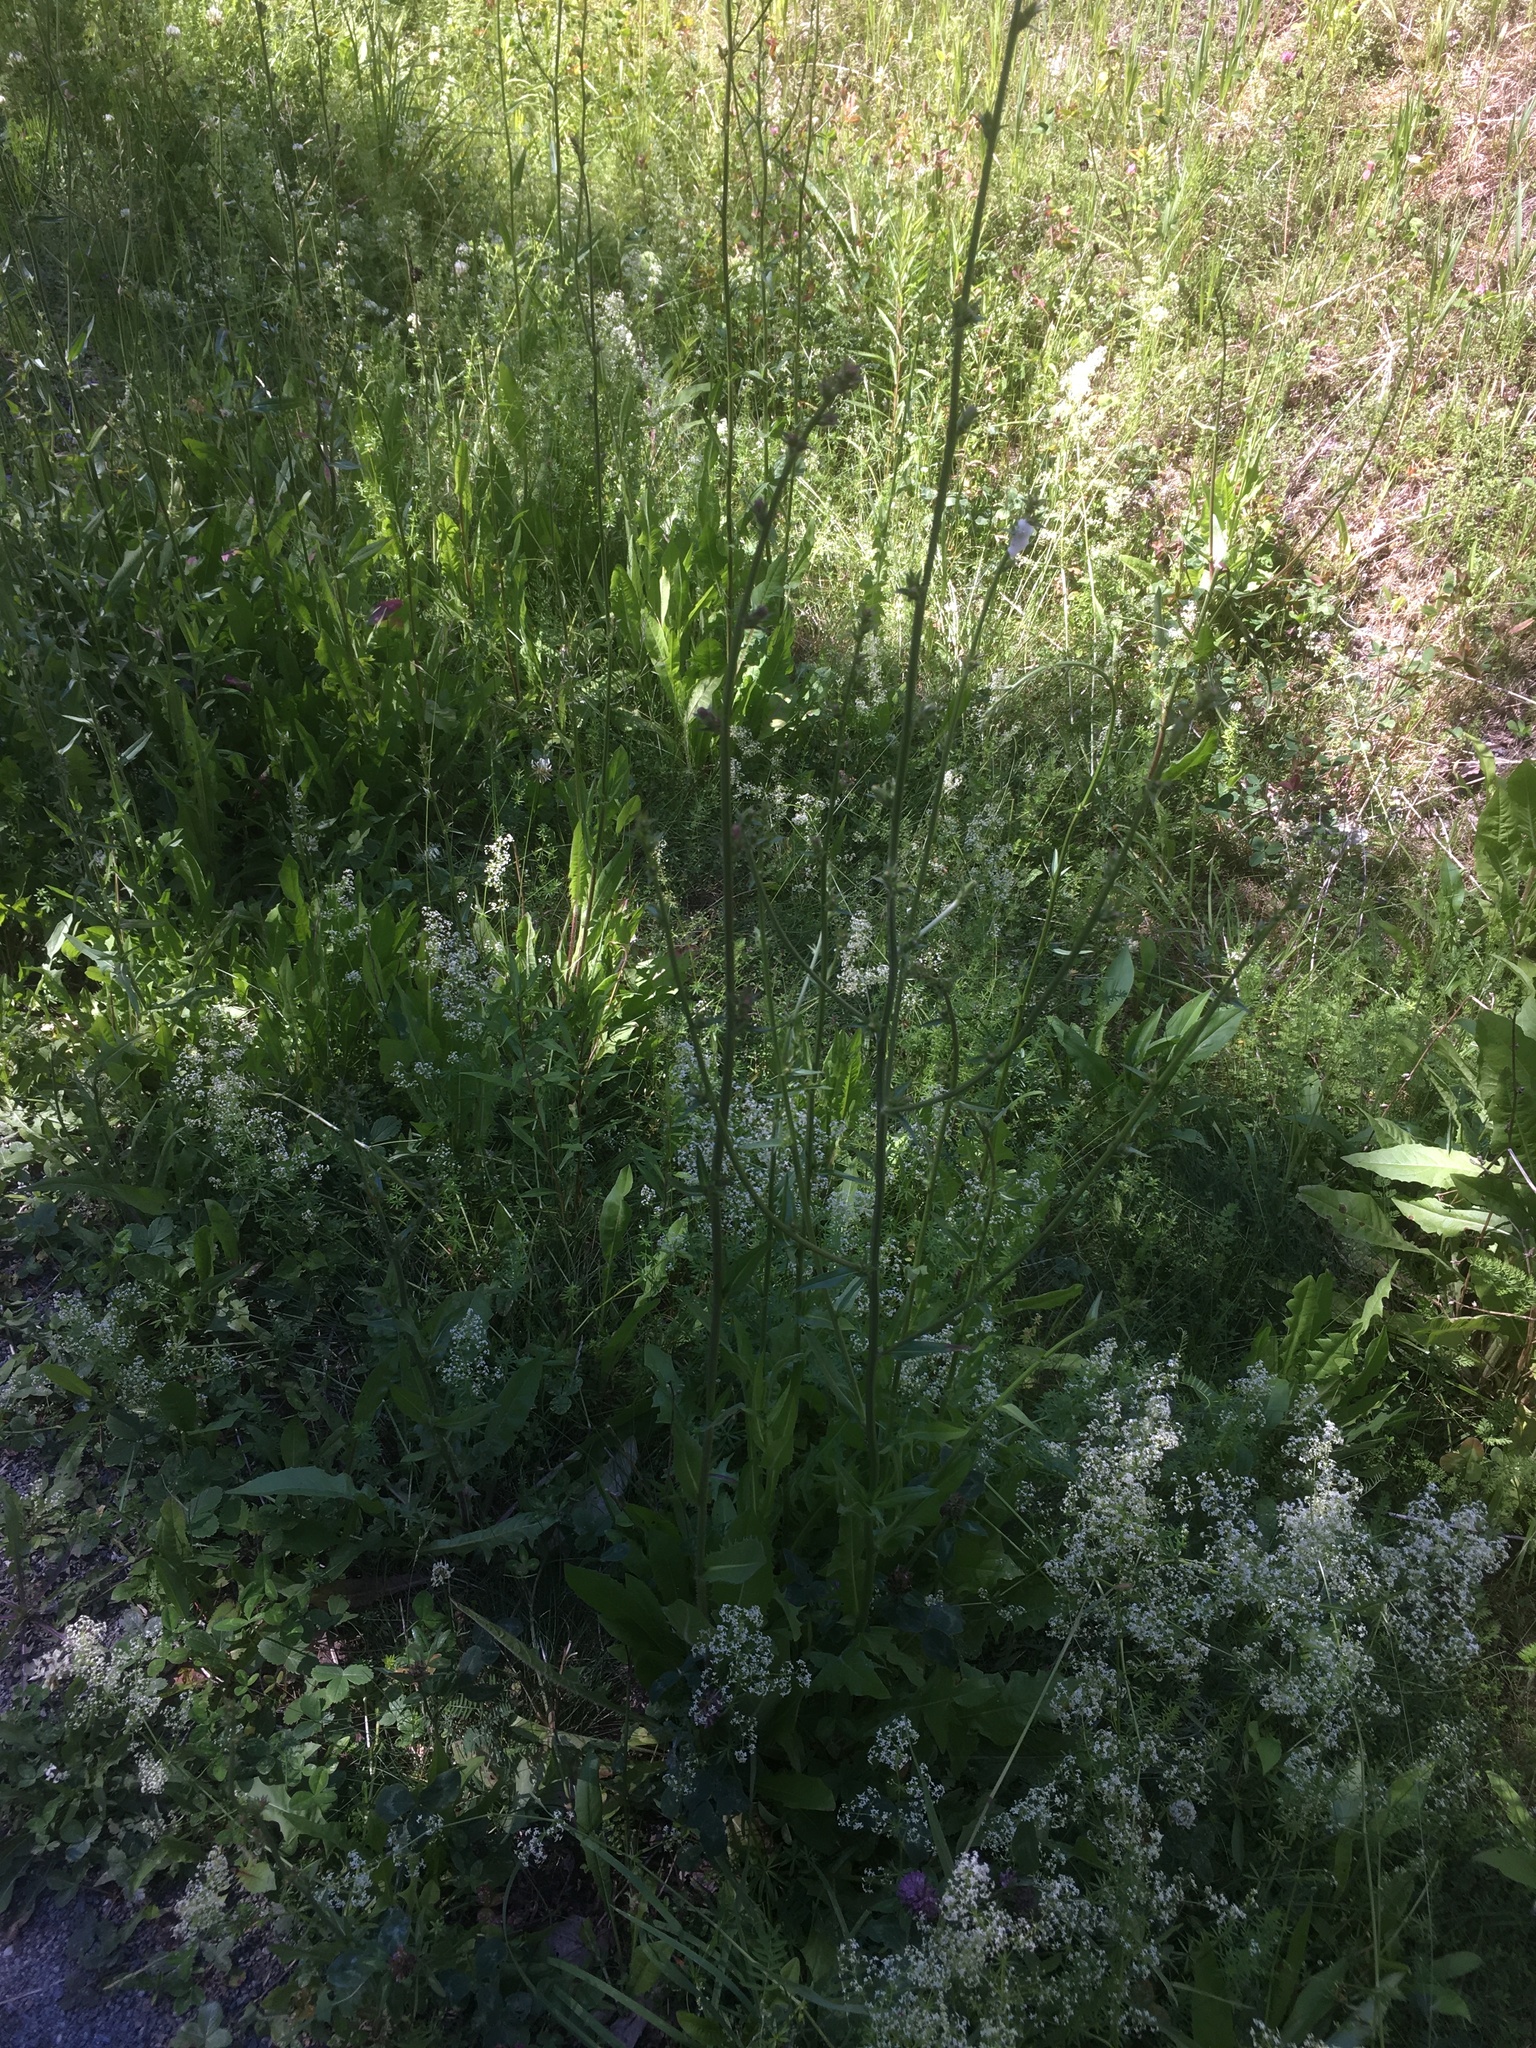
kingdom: Plantae
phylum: Tracheophyta
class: Magnoliopsida
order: Asterales
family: Asteraceae
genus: Cichorium
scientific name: Cichorium intybus
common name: Chicory
